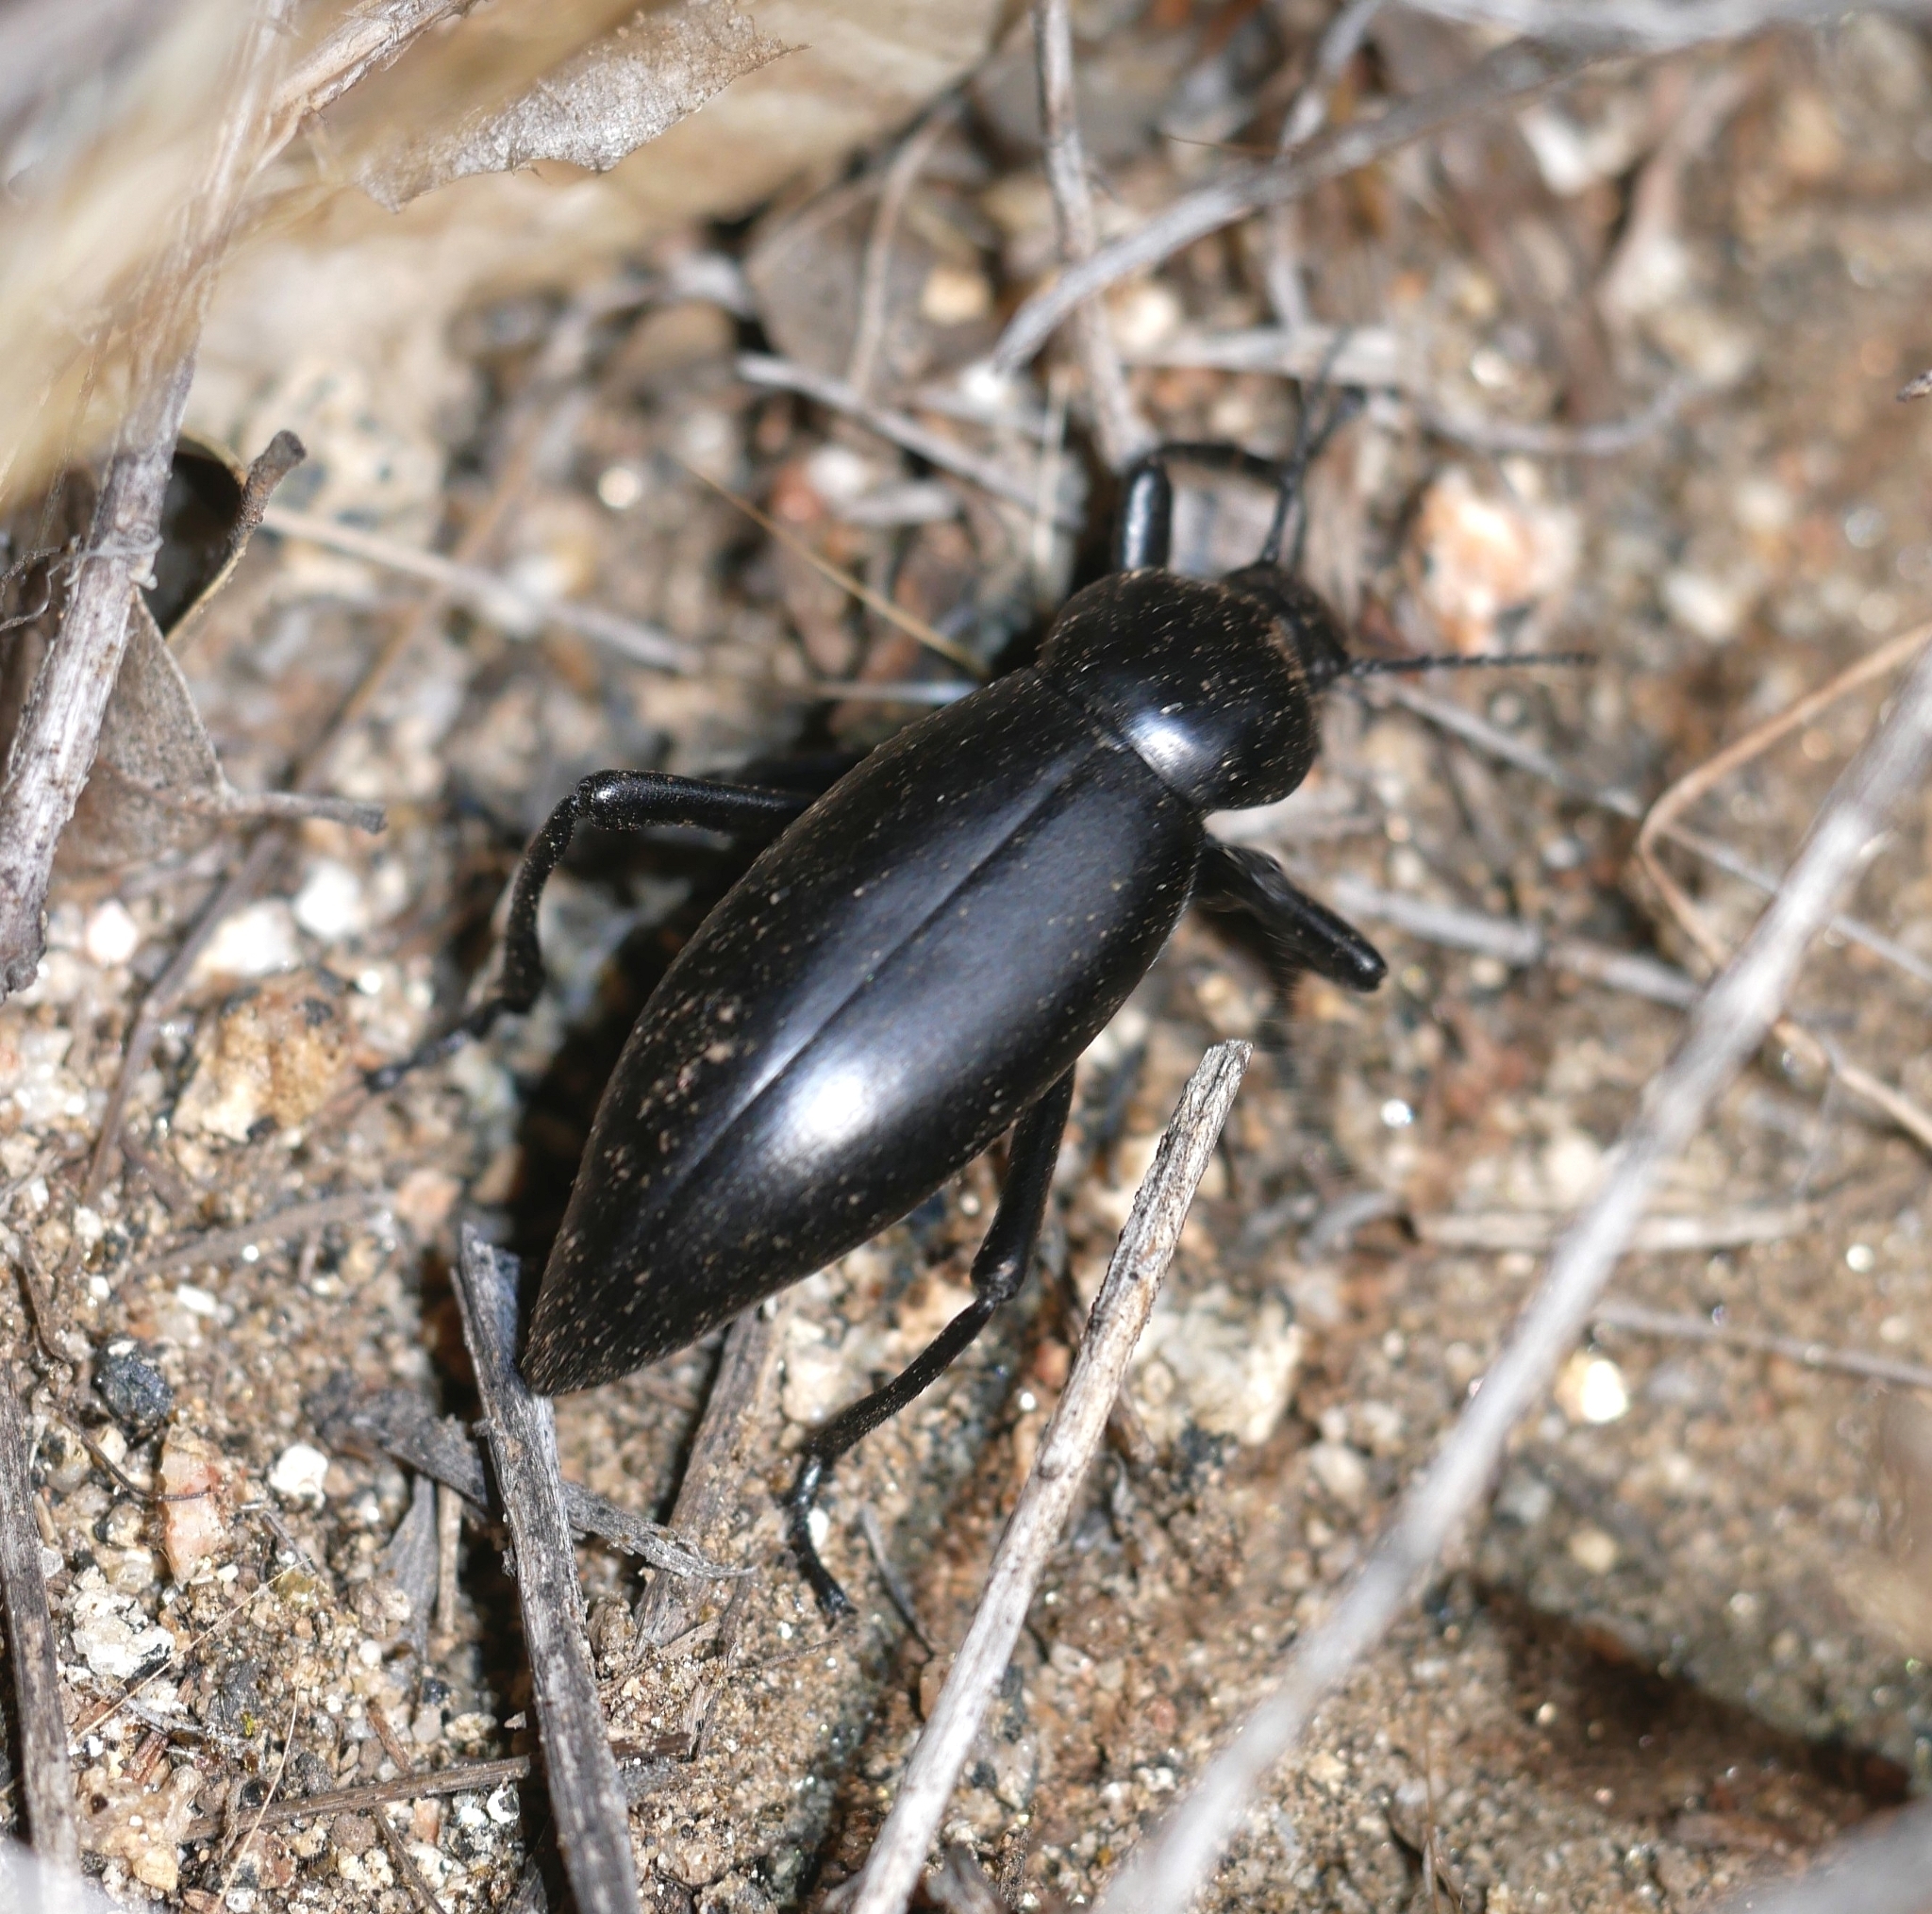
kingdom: Animalia
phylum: Arthropoda
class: Insecta
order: Coleoptera
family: Tenebrionidae
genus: Eleodes
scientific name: Eleodes gigantea
